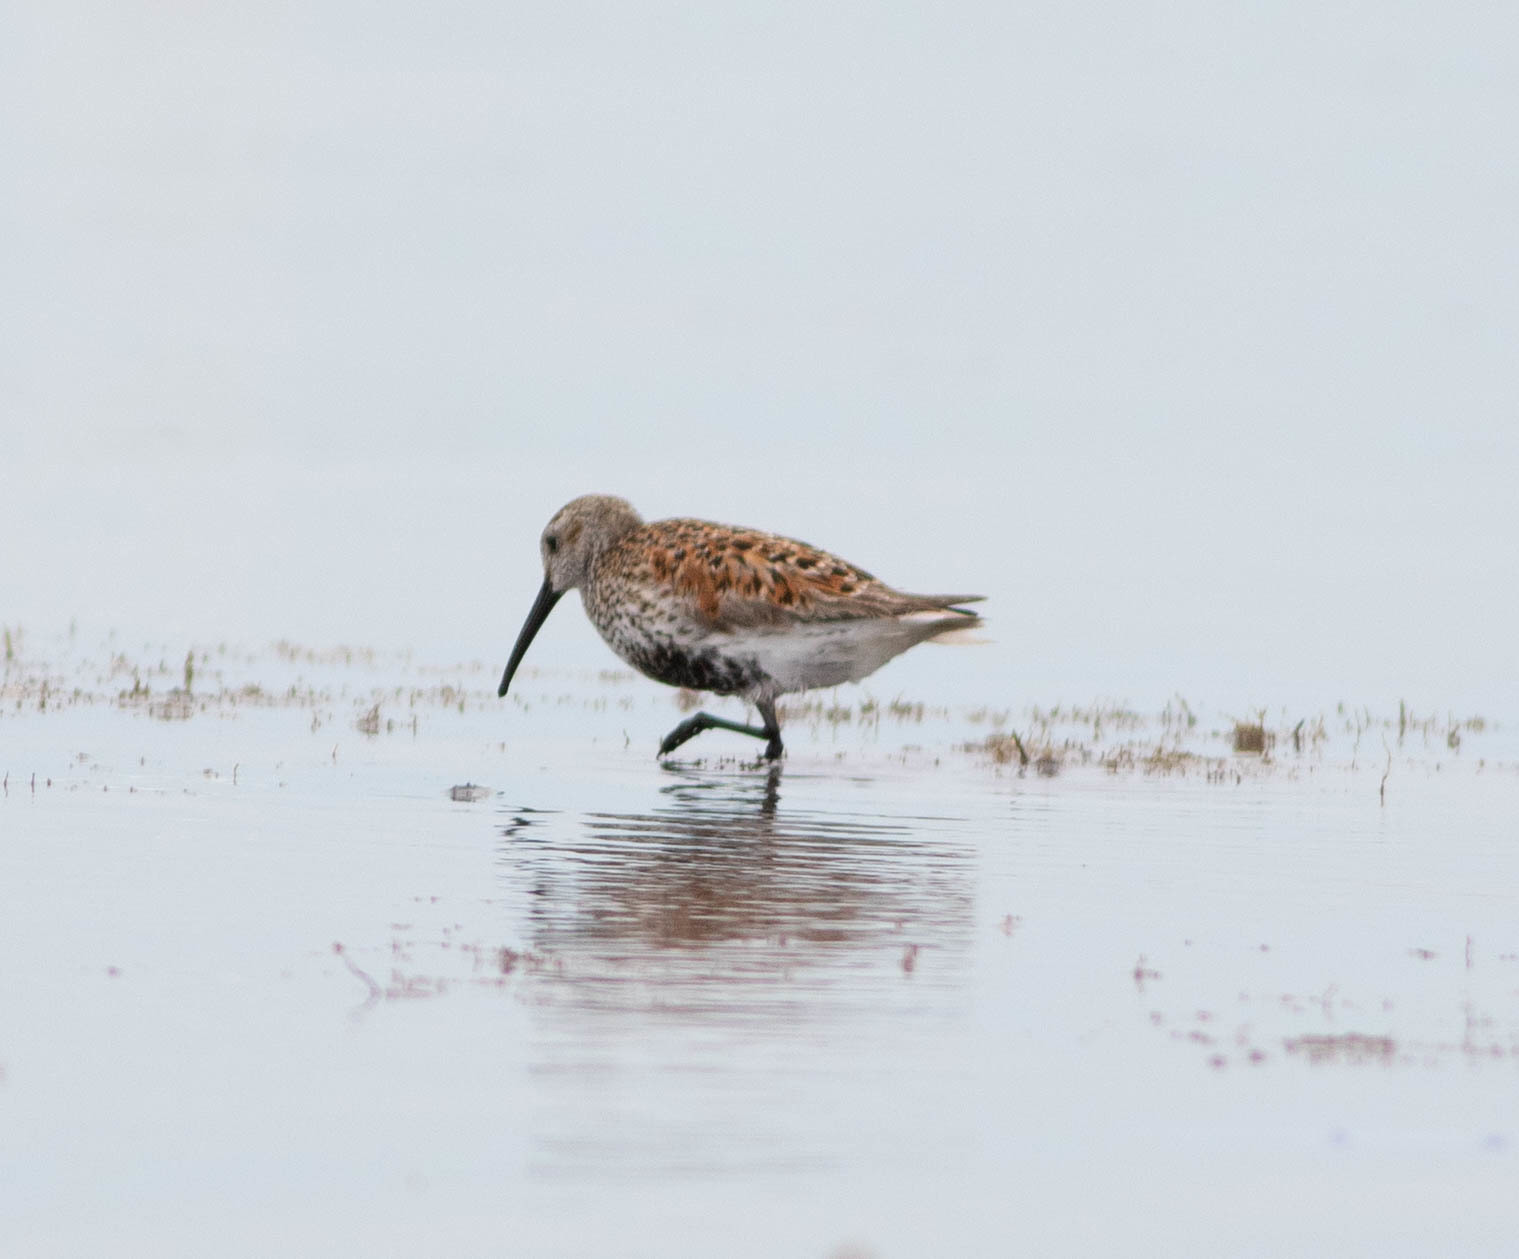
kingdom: Animalia
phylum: Chordata
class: Aves
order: Charadriiformes
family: Scolopacidae
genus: Calidris
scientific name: Calidris alpina
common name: Dunlin
